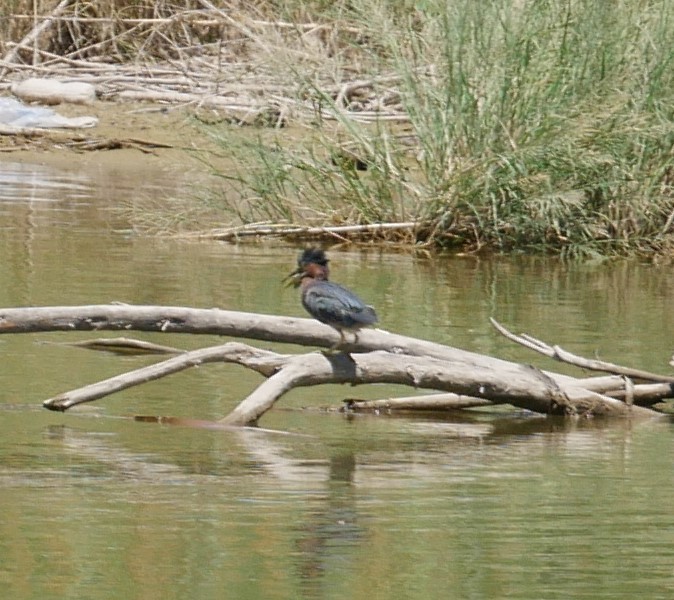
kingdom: Animalia
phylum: Chordata
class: Aves
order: Pelecaniformes
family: Ardeidae
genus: Butorides
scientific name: Butorides virescens
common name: Green heron
